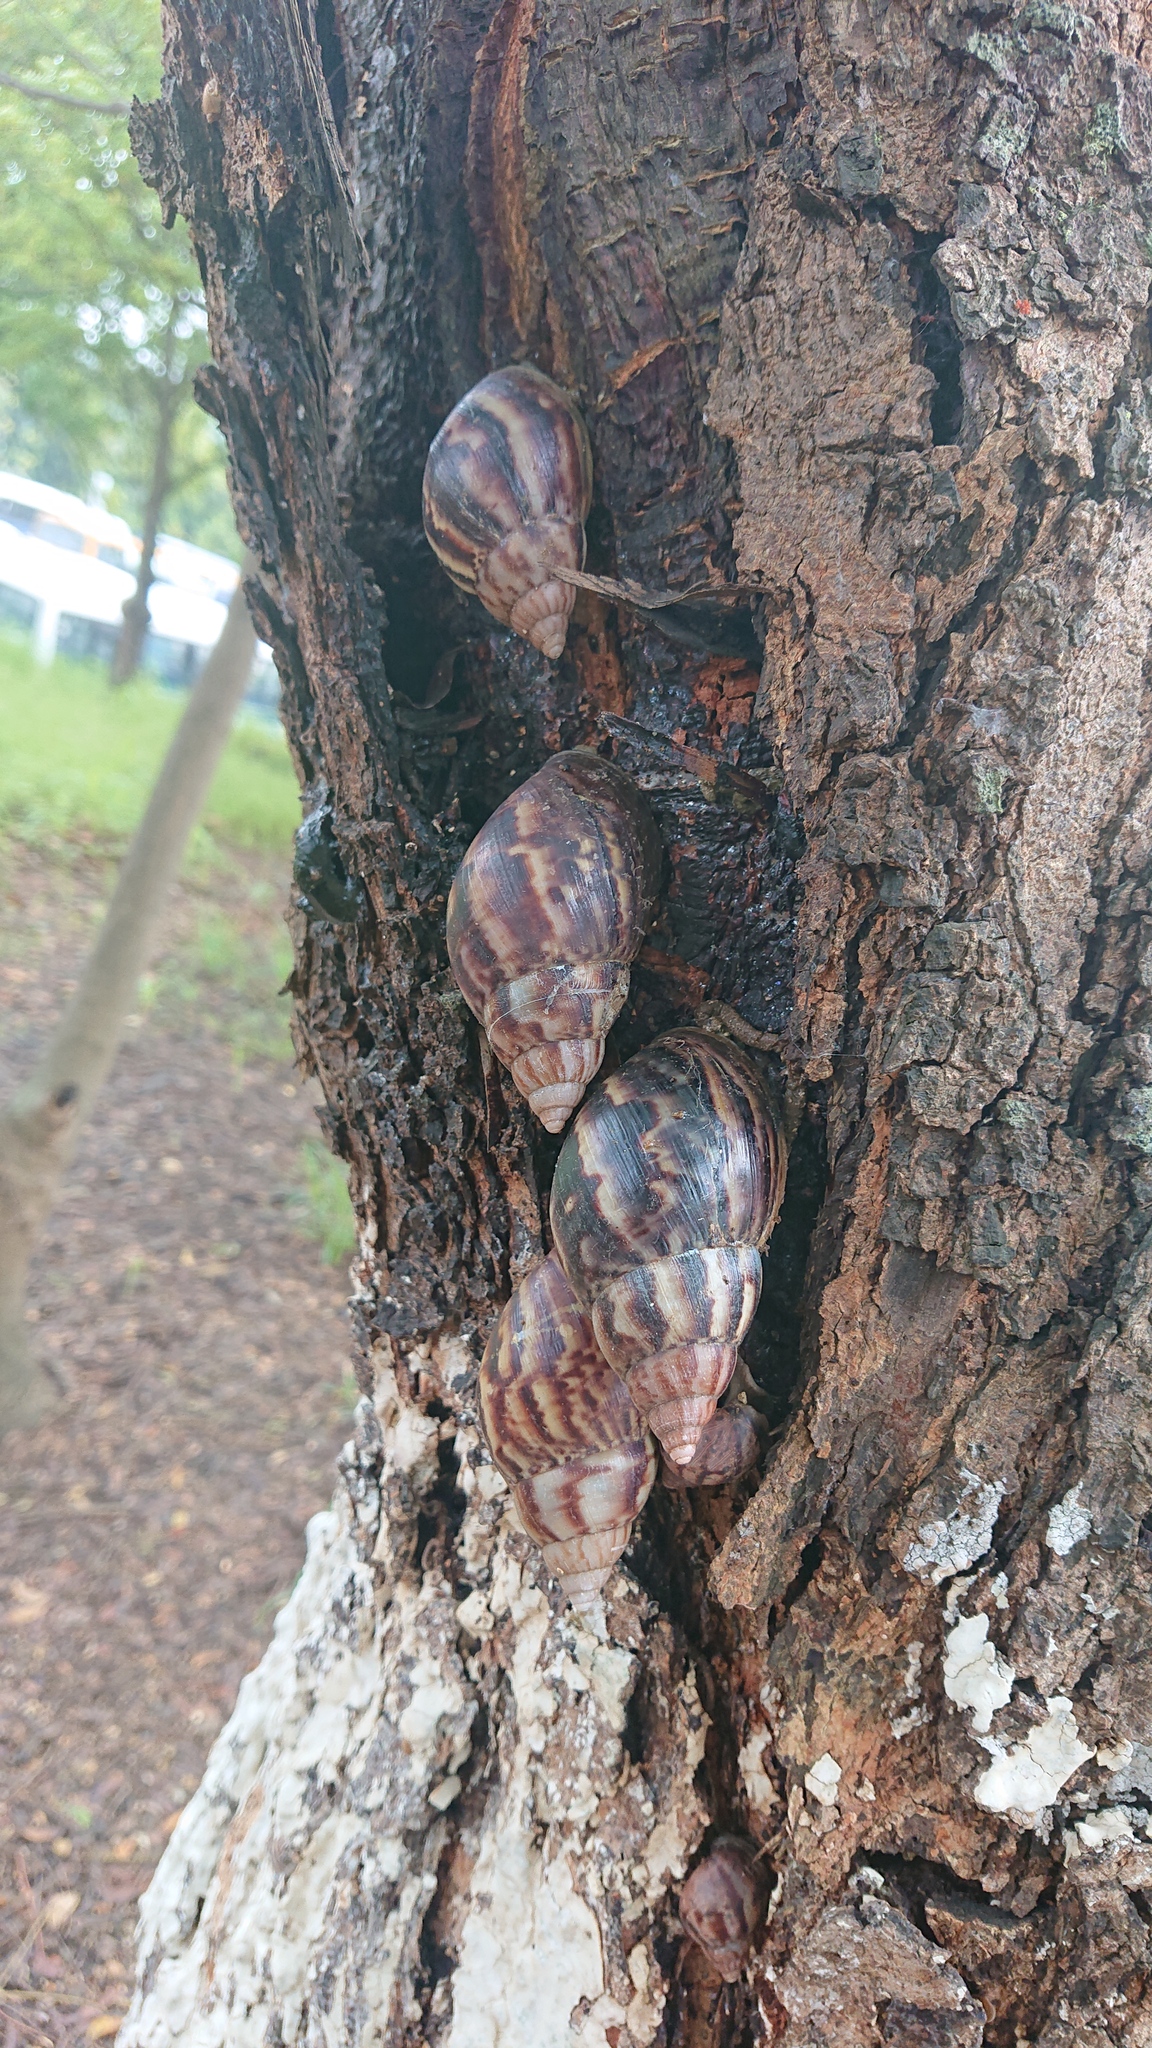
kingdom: Animalia
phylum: Mollusca
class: Gastropoda
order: Stylommatophora
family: Achatinidae
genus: Lissachatina
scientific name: Lissachatina fulica
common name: Giant african snail
